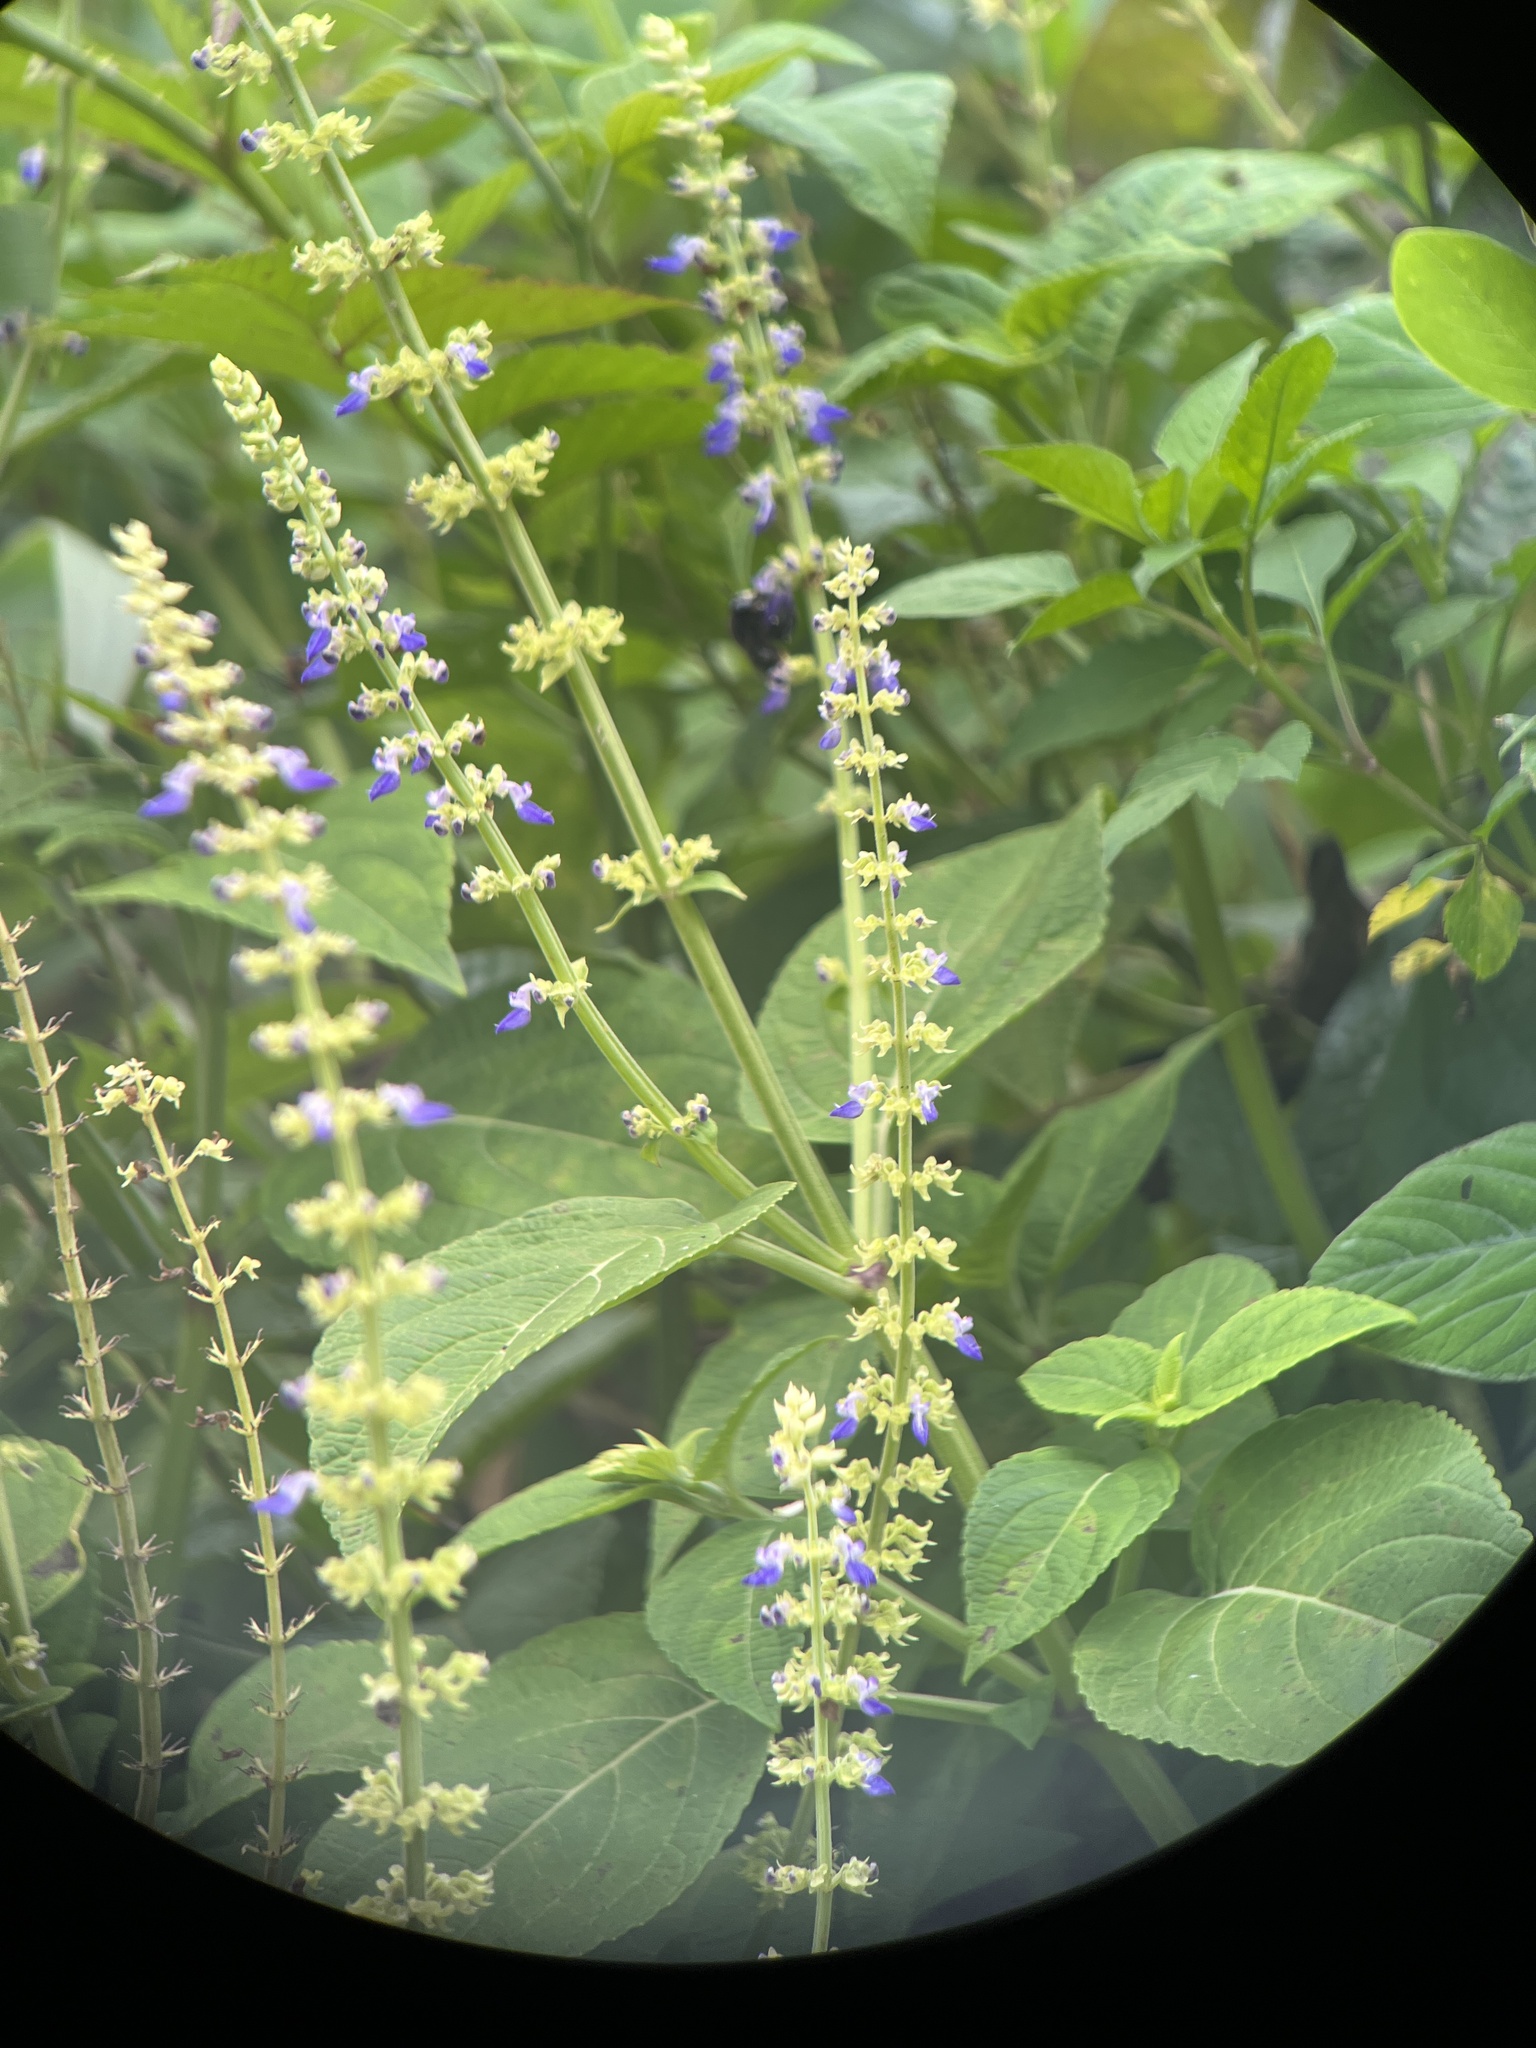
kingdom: Plantae
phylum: Tracheophyta
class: Magnoliopsida
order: Lamiales
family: Lamiaceae
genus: Coleus
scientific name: Coleus scutellarioides
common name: Coleus
